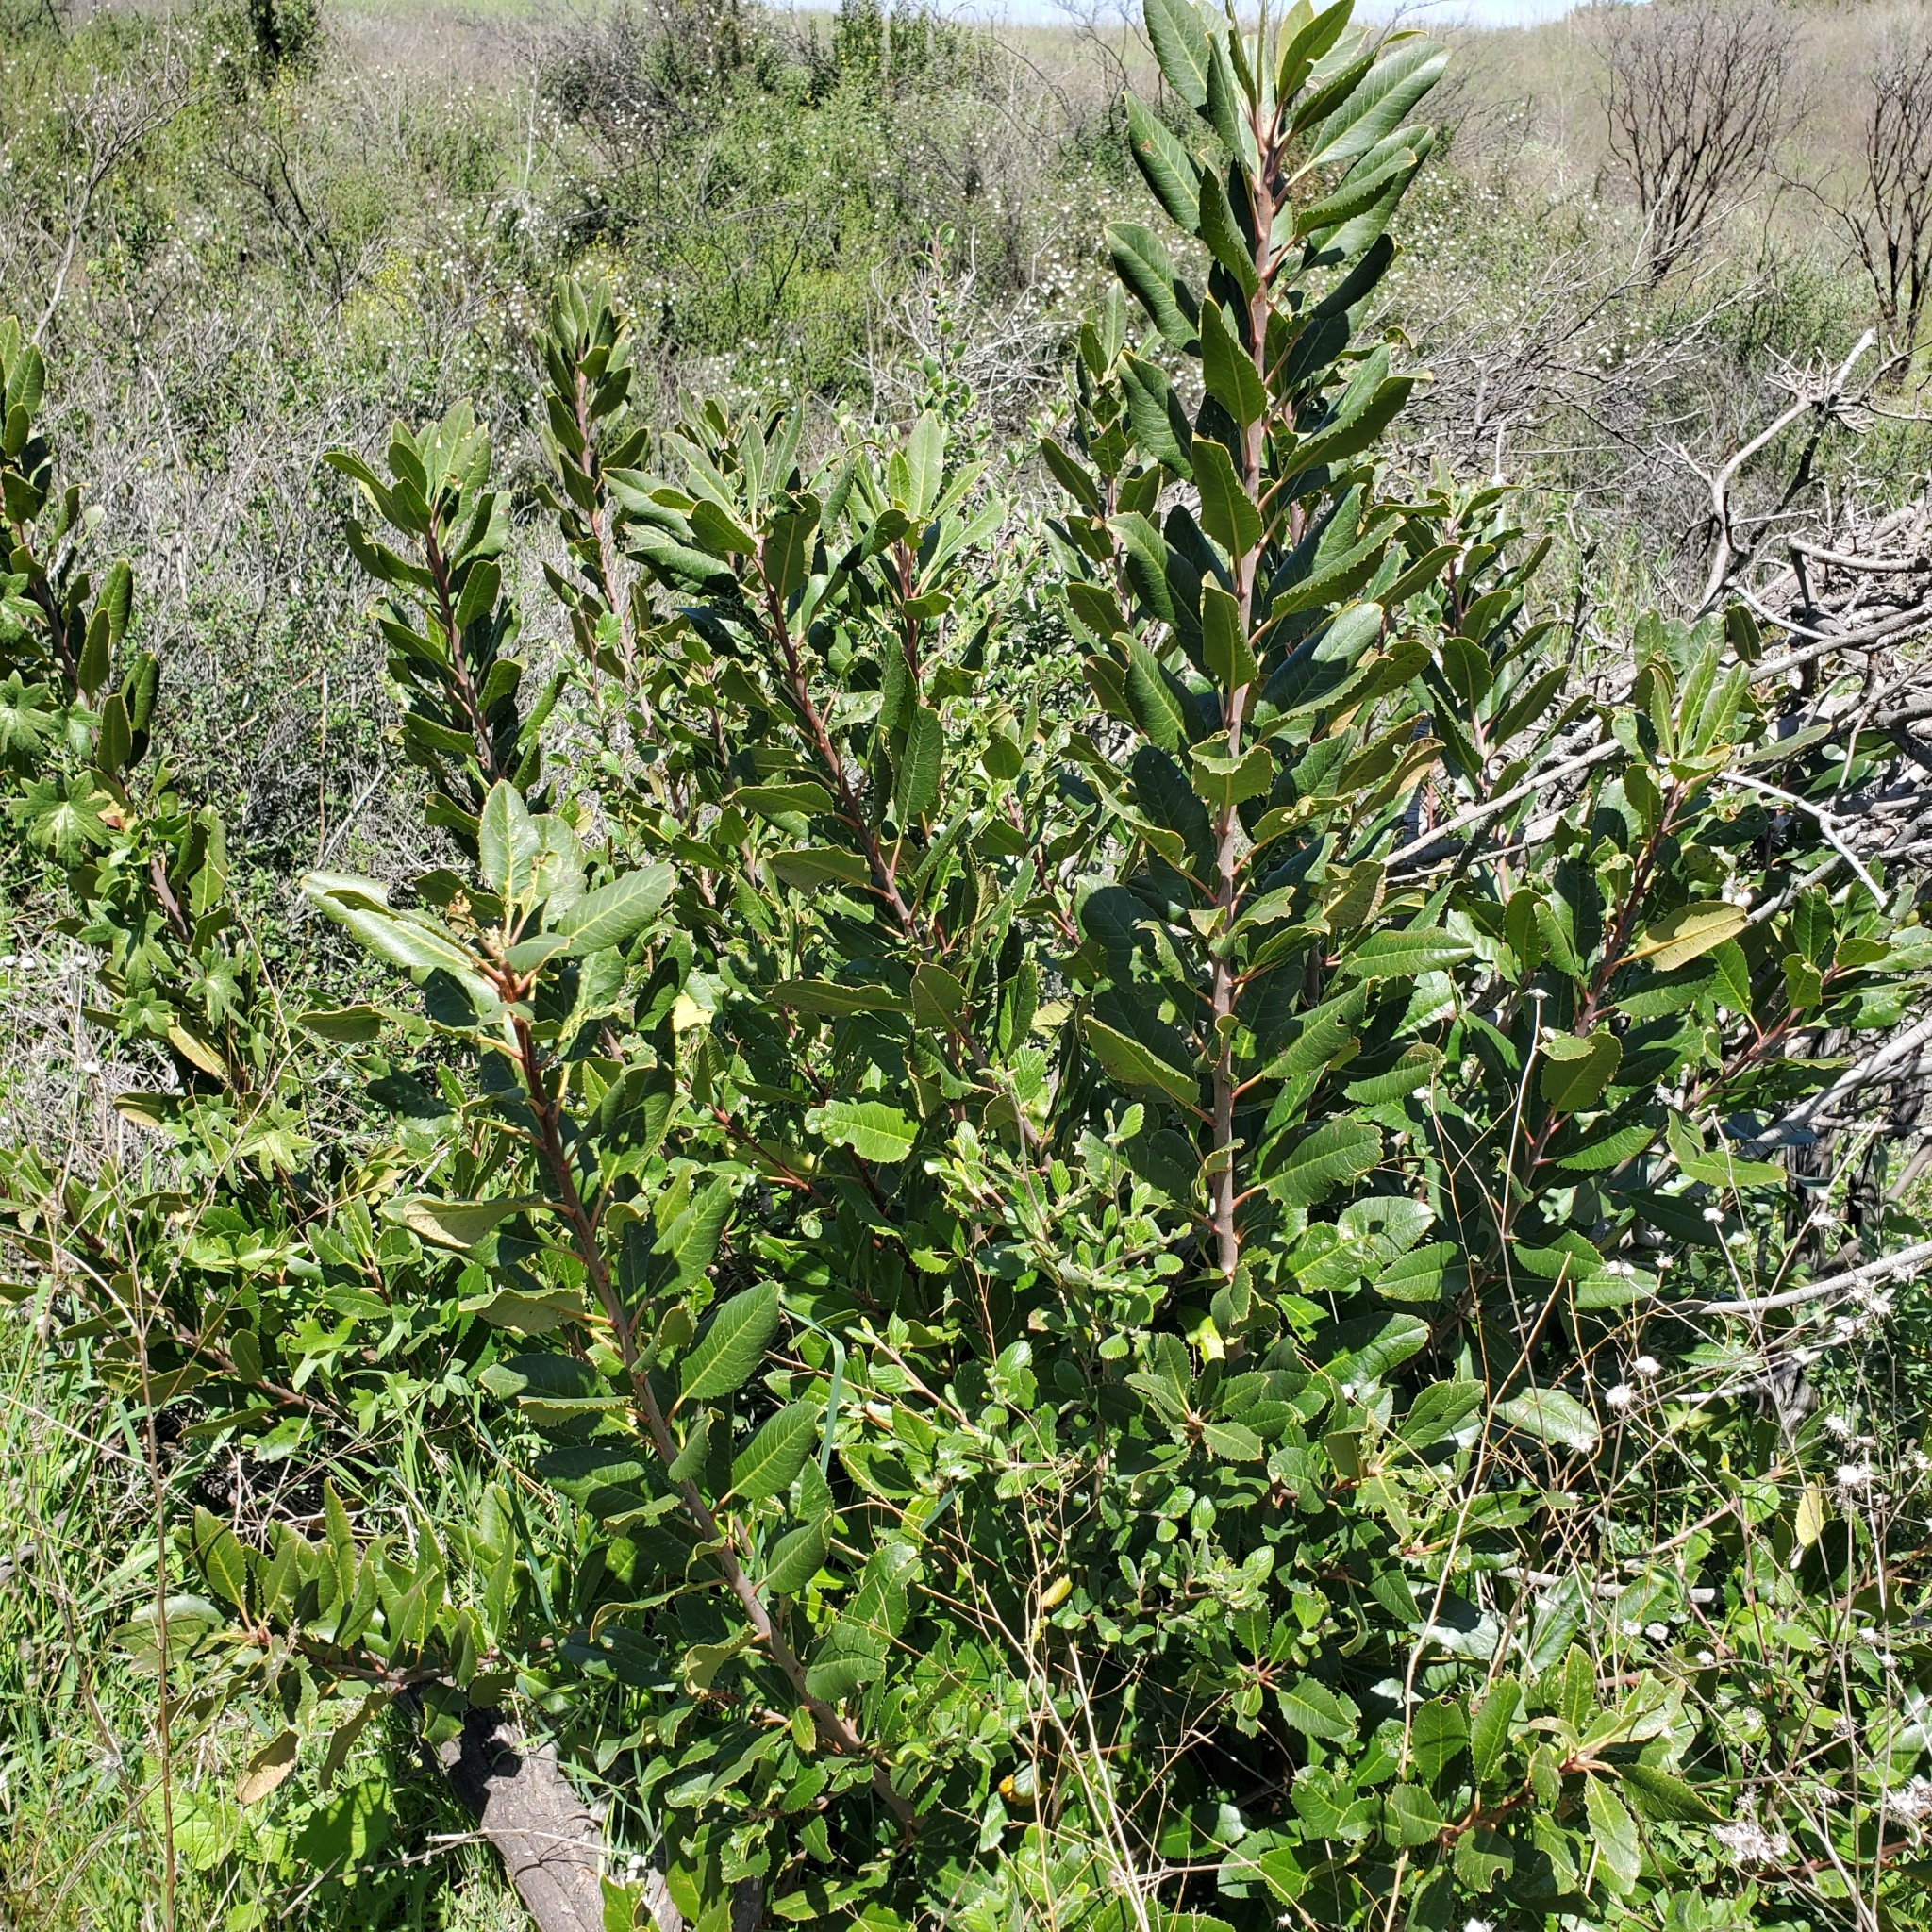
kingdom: Plantae
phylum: Tracheophyta
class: Magnoliopsida
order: Rosales
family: Rosaceae
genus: Heteromeles
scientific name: Heteromeles arbutifolia
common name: California-holly
